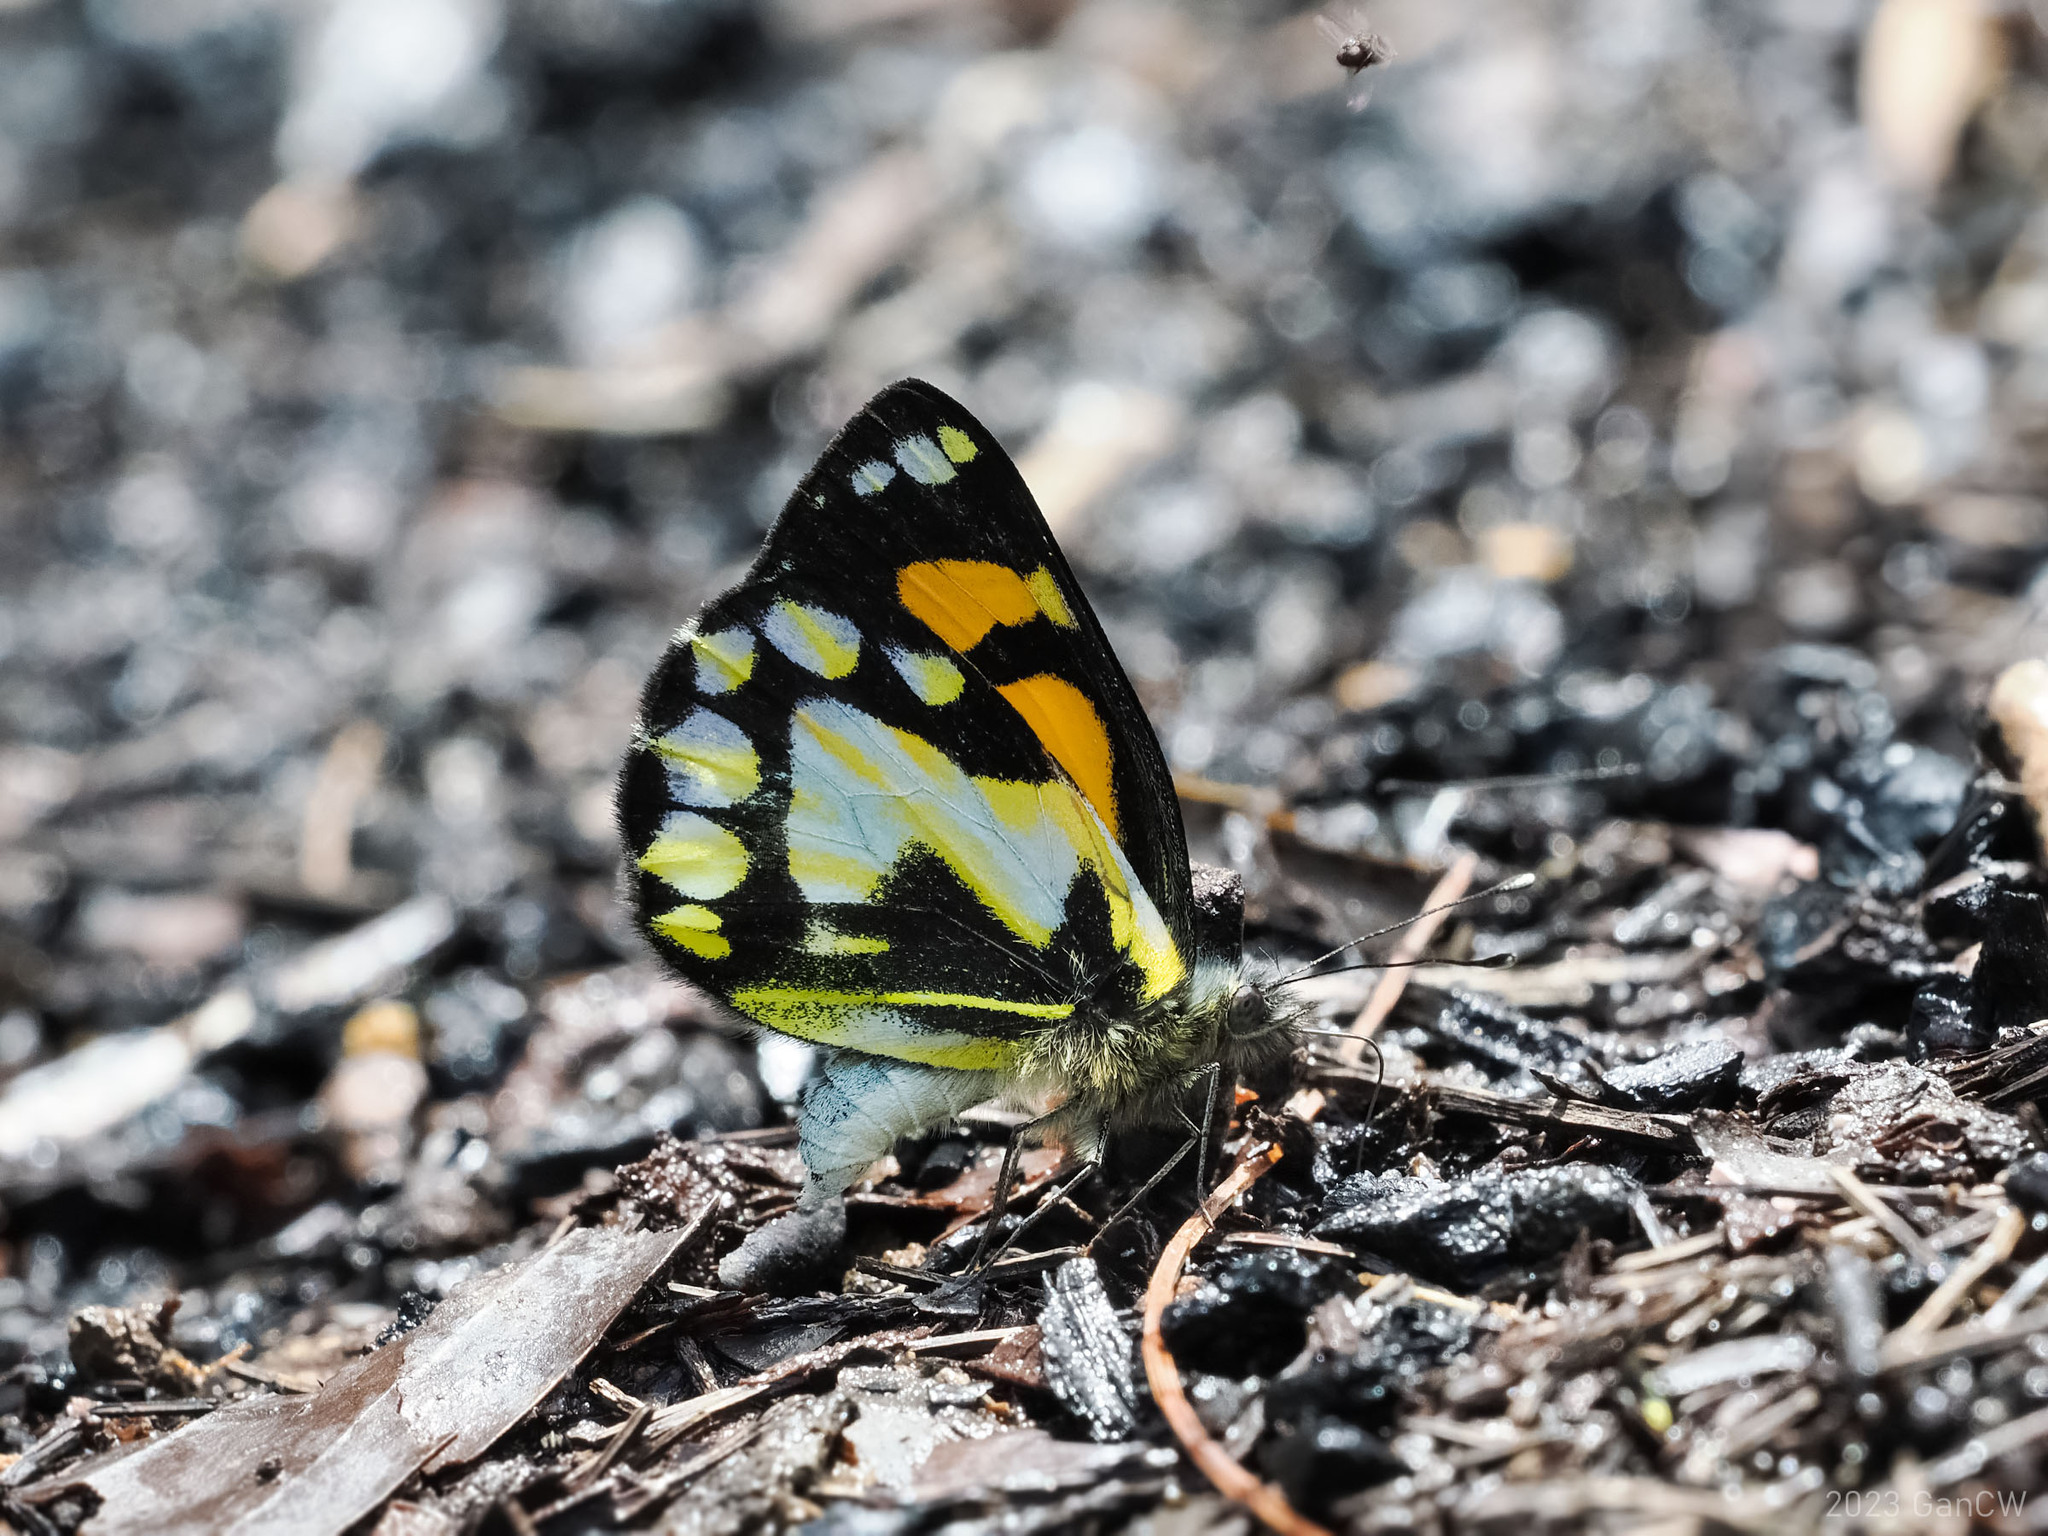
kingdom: Animalia
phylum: Arthropoda
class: Insecta
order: Lepidoptera
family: Pieridae
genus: Delias
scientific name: Delias
